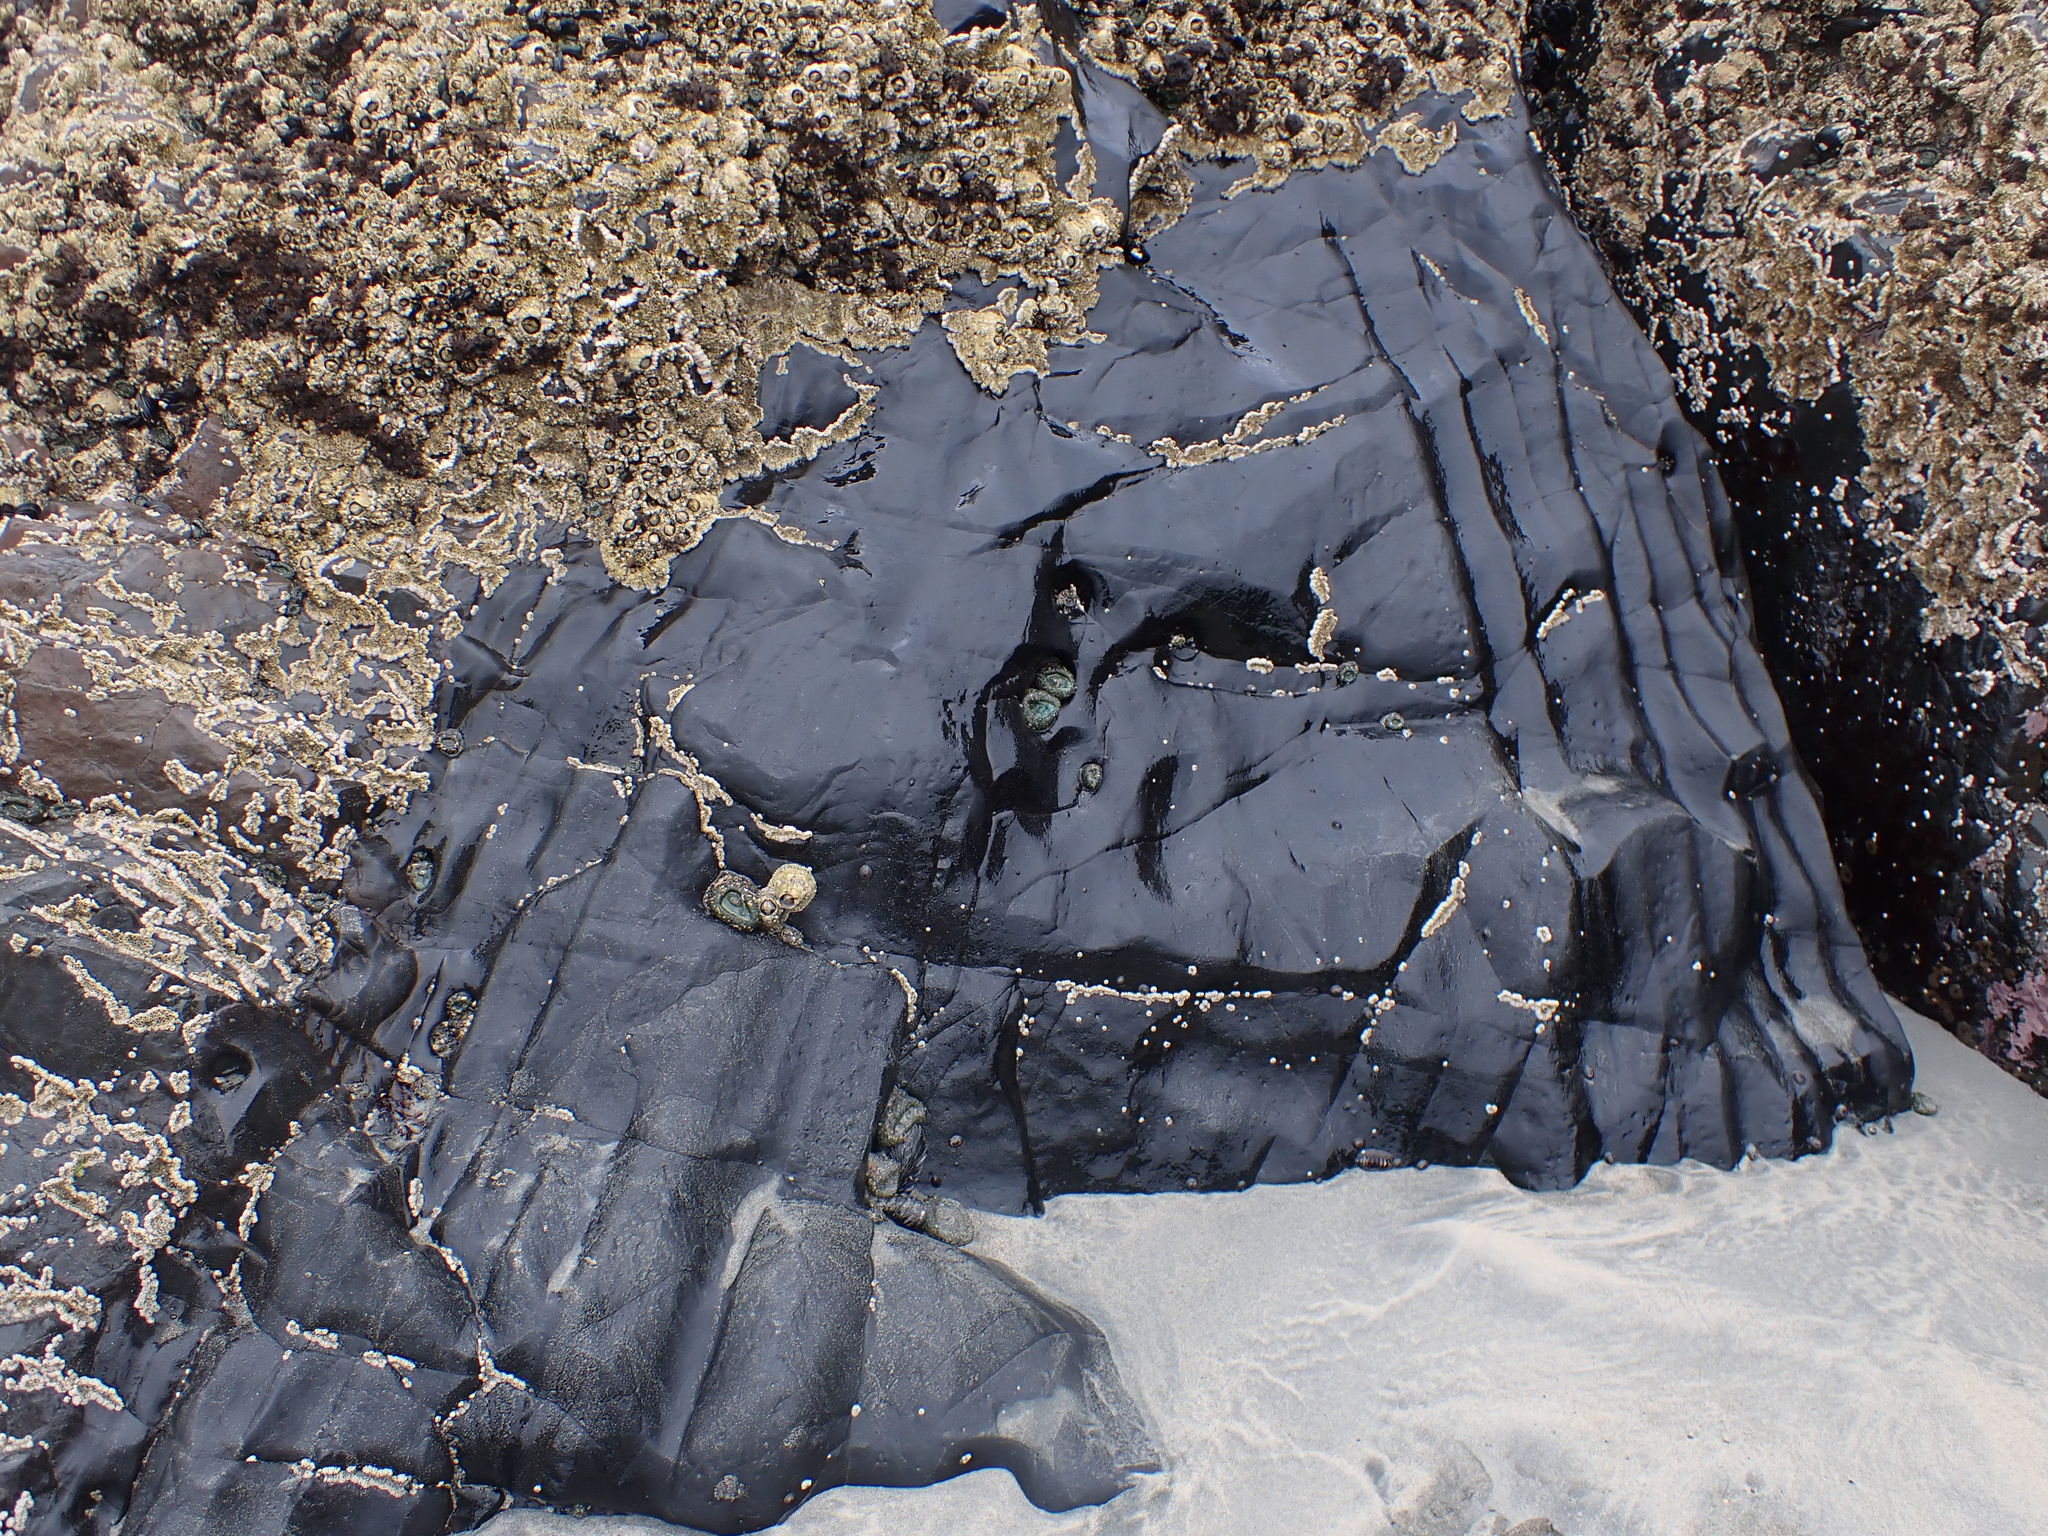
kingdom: Animalia
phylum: Arthropoda
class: Maxillopoda
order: Sessilia
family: Archaeobalanidae
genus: Semibalanus
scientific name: Semibalanus cariosus
